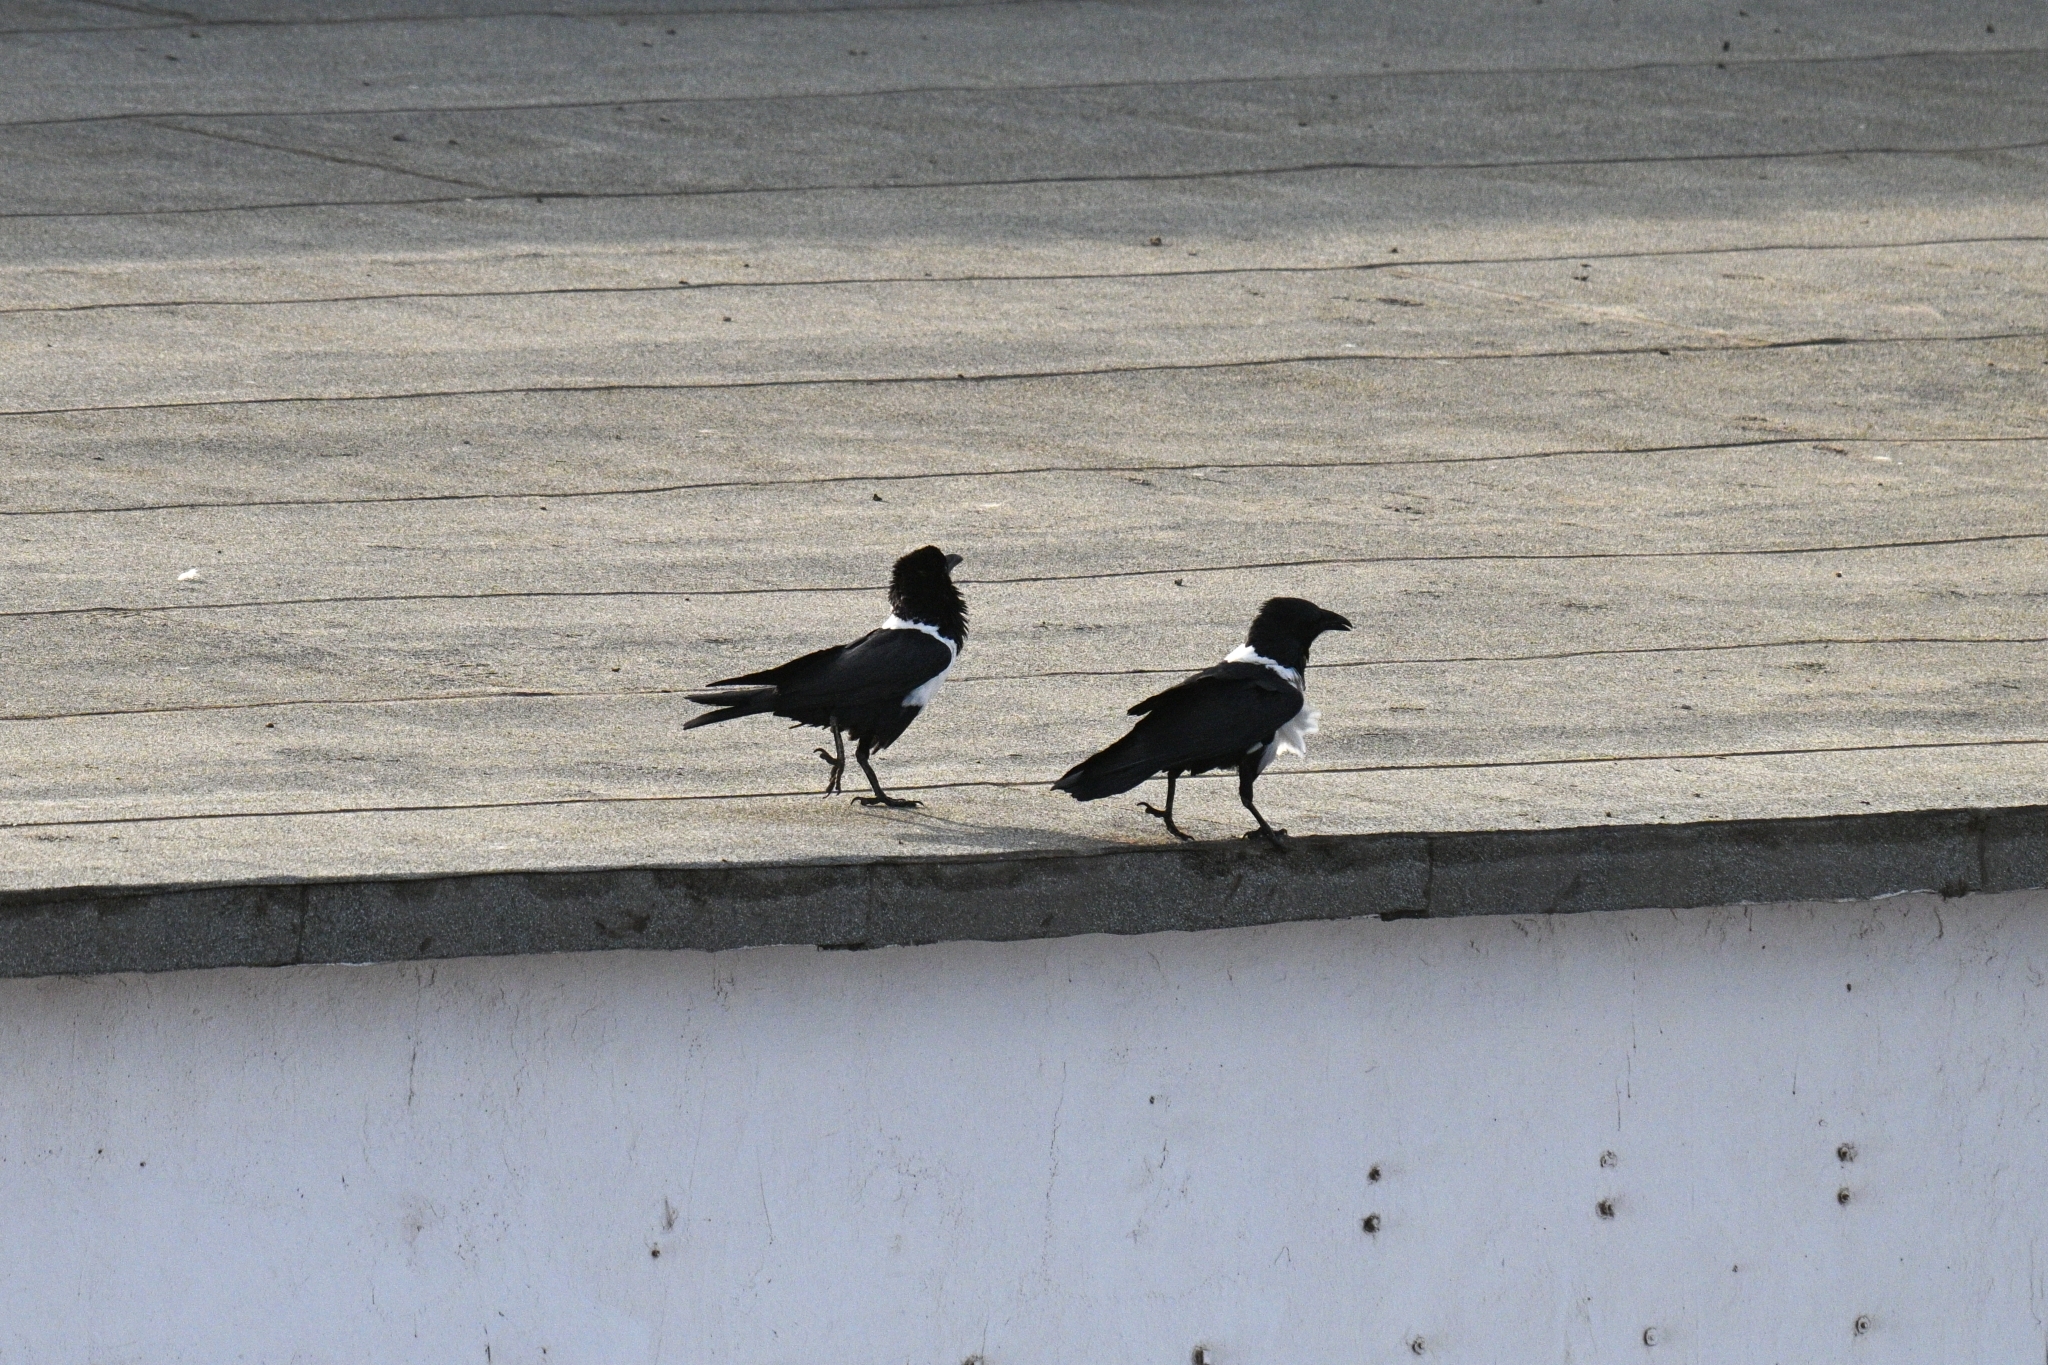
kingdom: Animalia
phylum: Chordata
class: Aves
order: Passeriformes
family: Corvidae
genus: Corvus
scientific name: Corvus albus
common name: Pied crow
